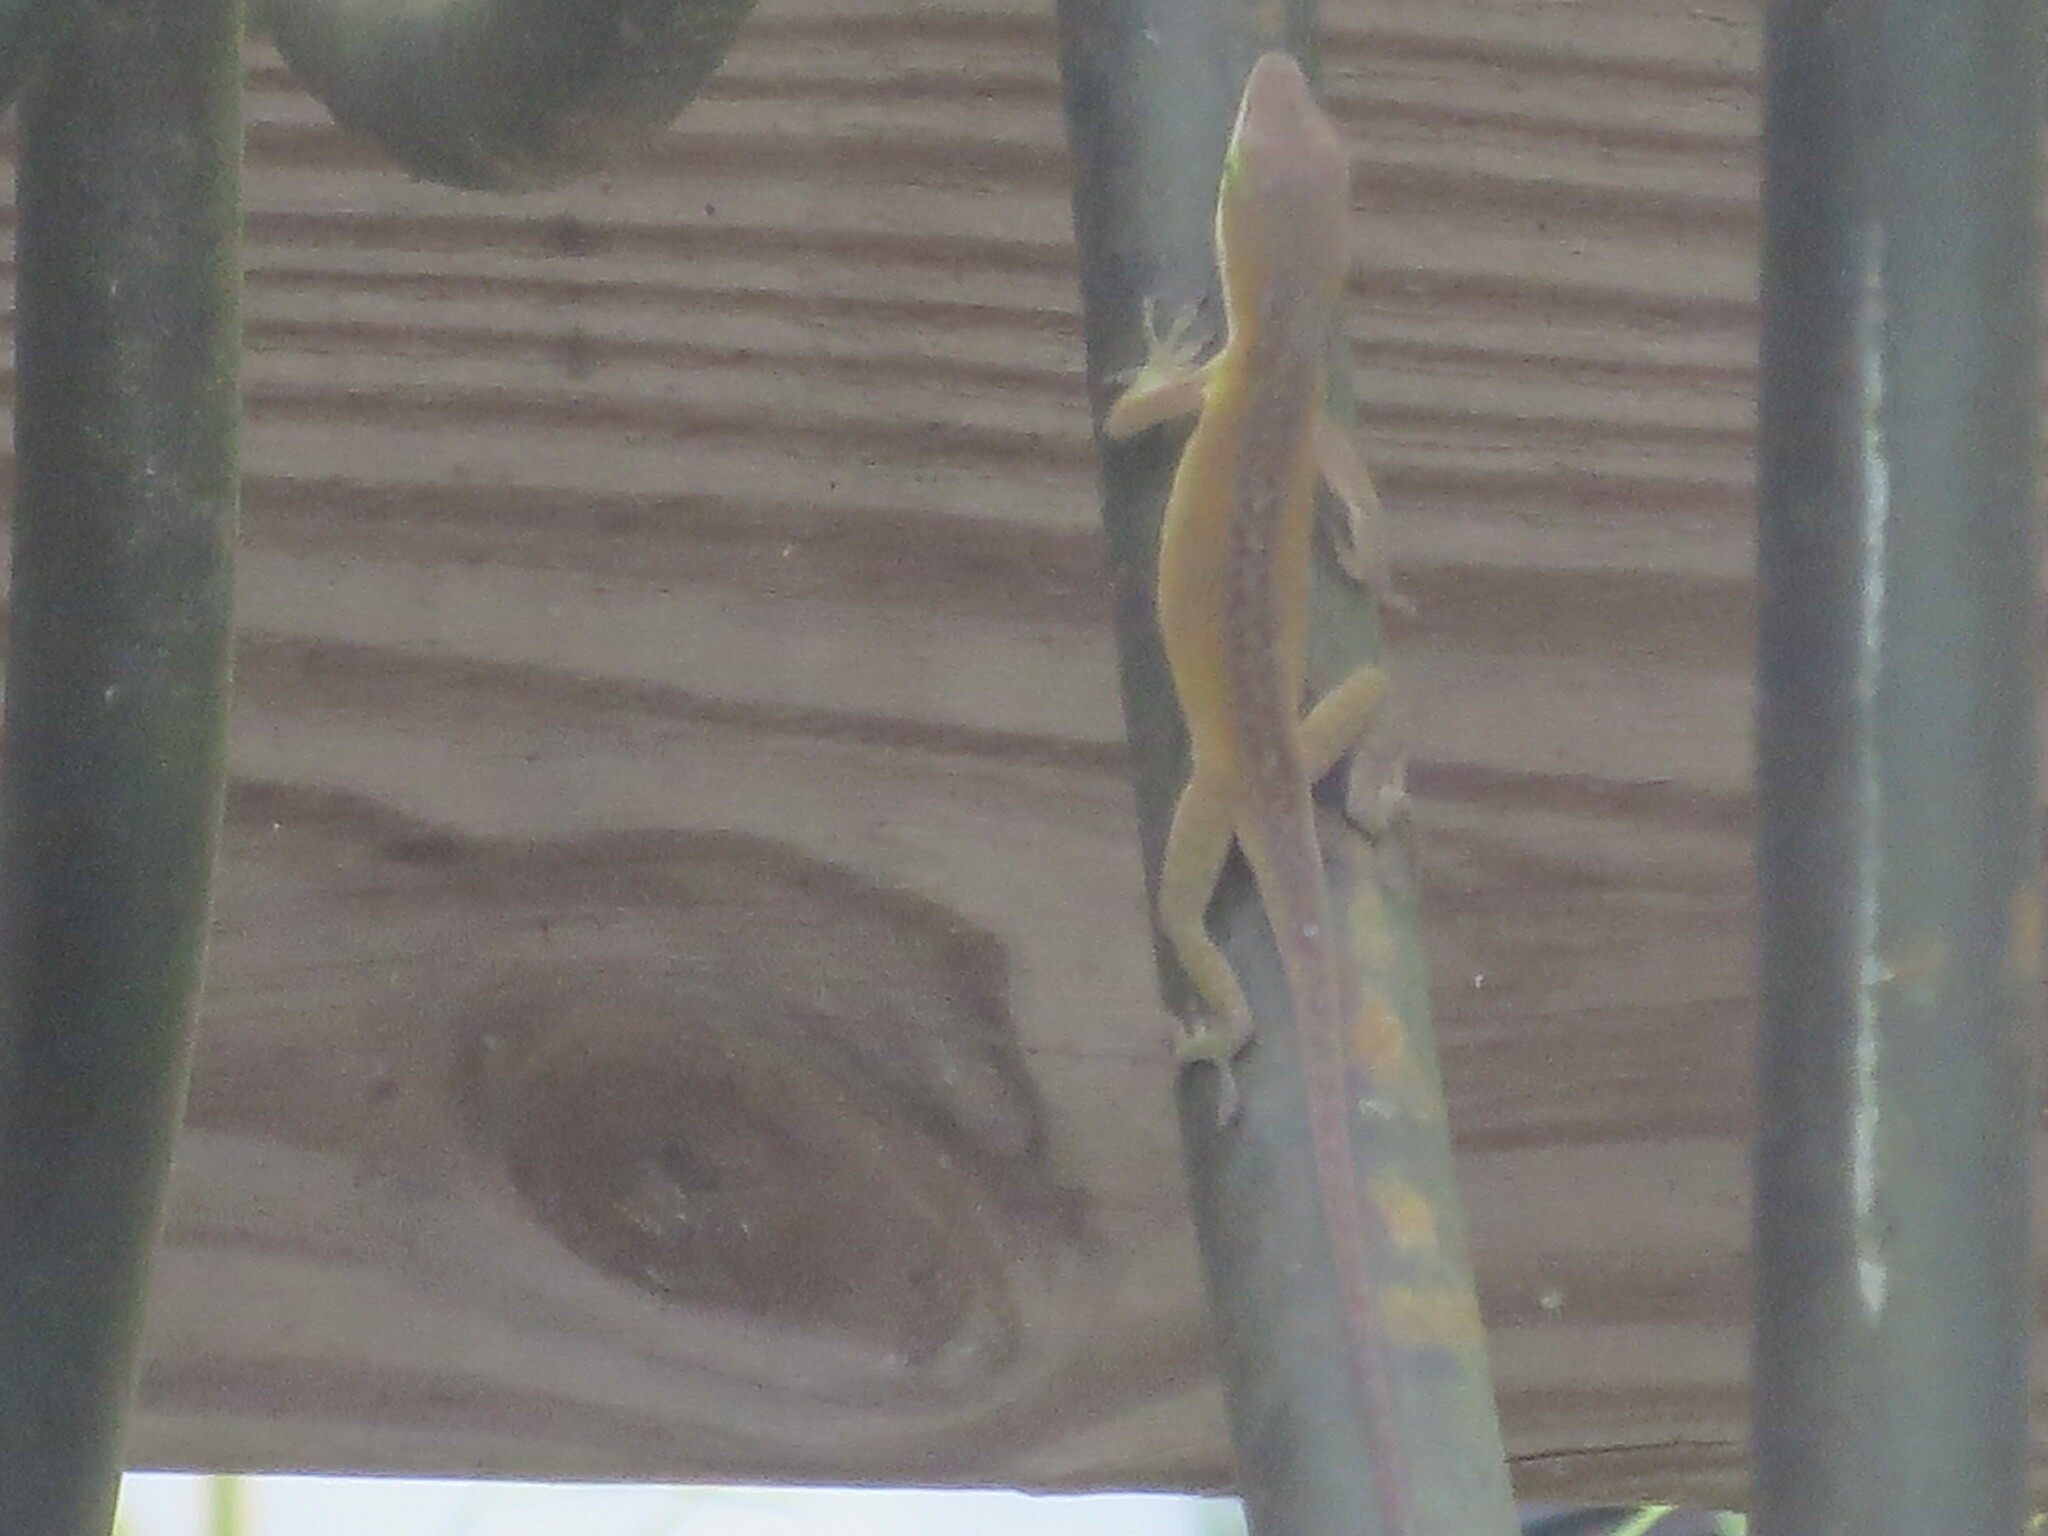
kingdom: Animalia
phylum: Chordata
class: Squamata
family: Dactyloidae
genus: Anolis
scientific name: Anolis carolinensis
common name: Green anole
